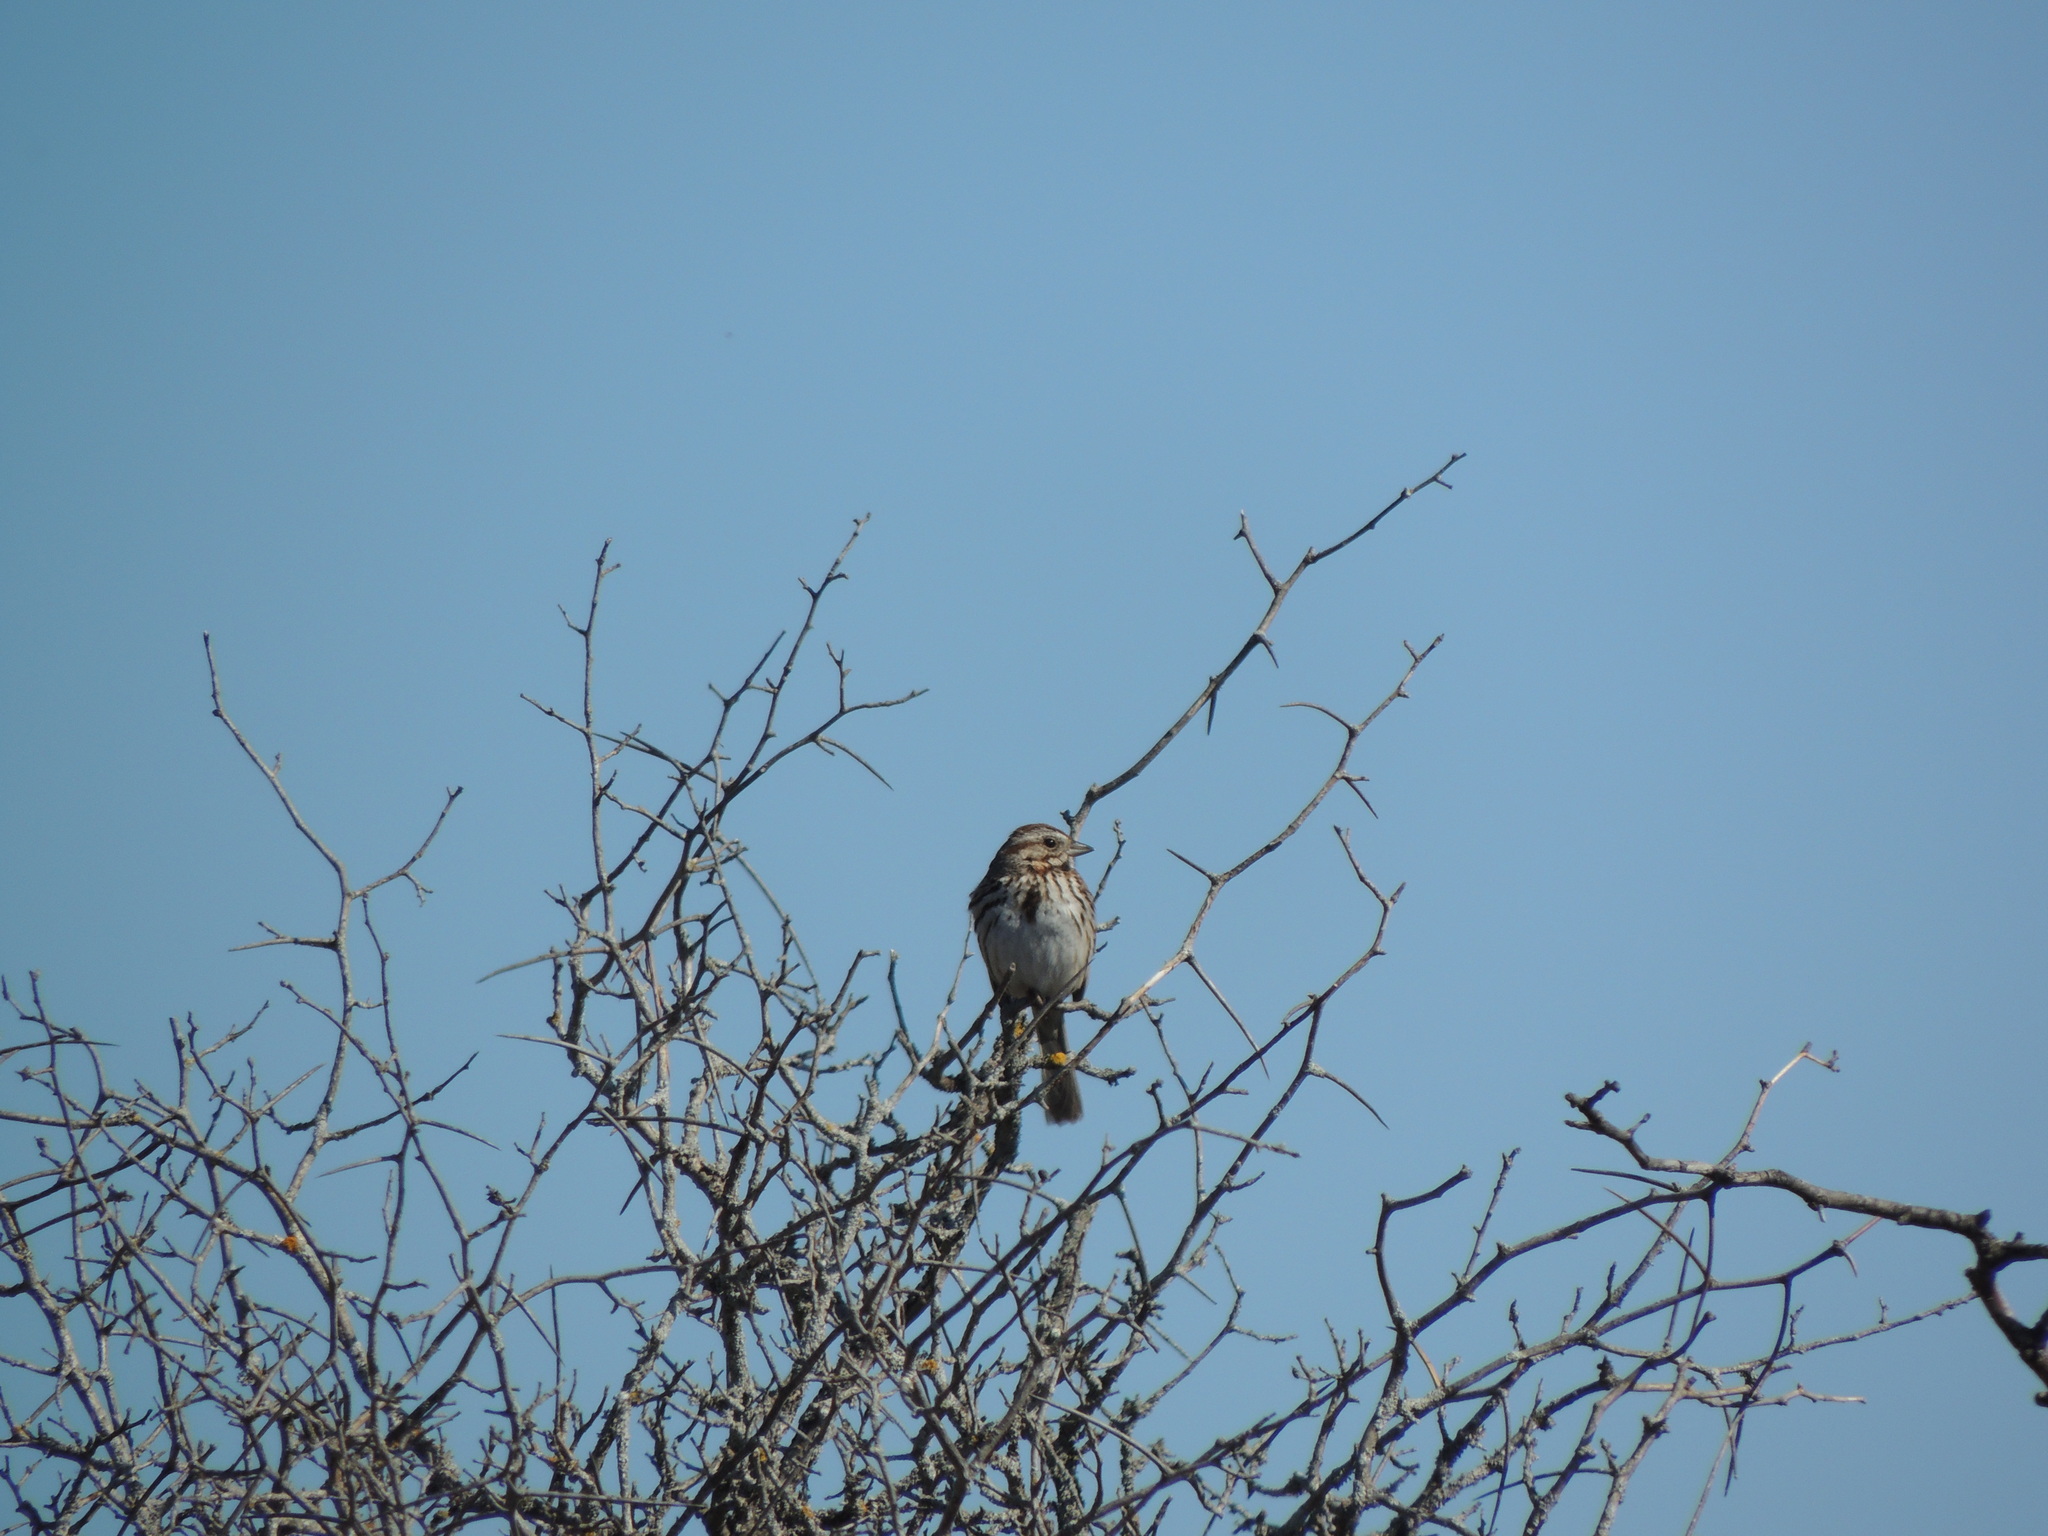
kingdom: Animalia
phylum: Chordata
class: Aves
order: Passeriformes
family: Passerellidae
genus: Melospiza
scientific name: Melospiza melodia
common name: Song sparrow
